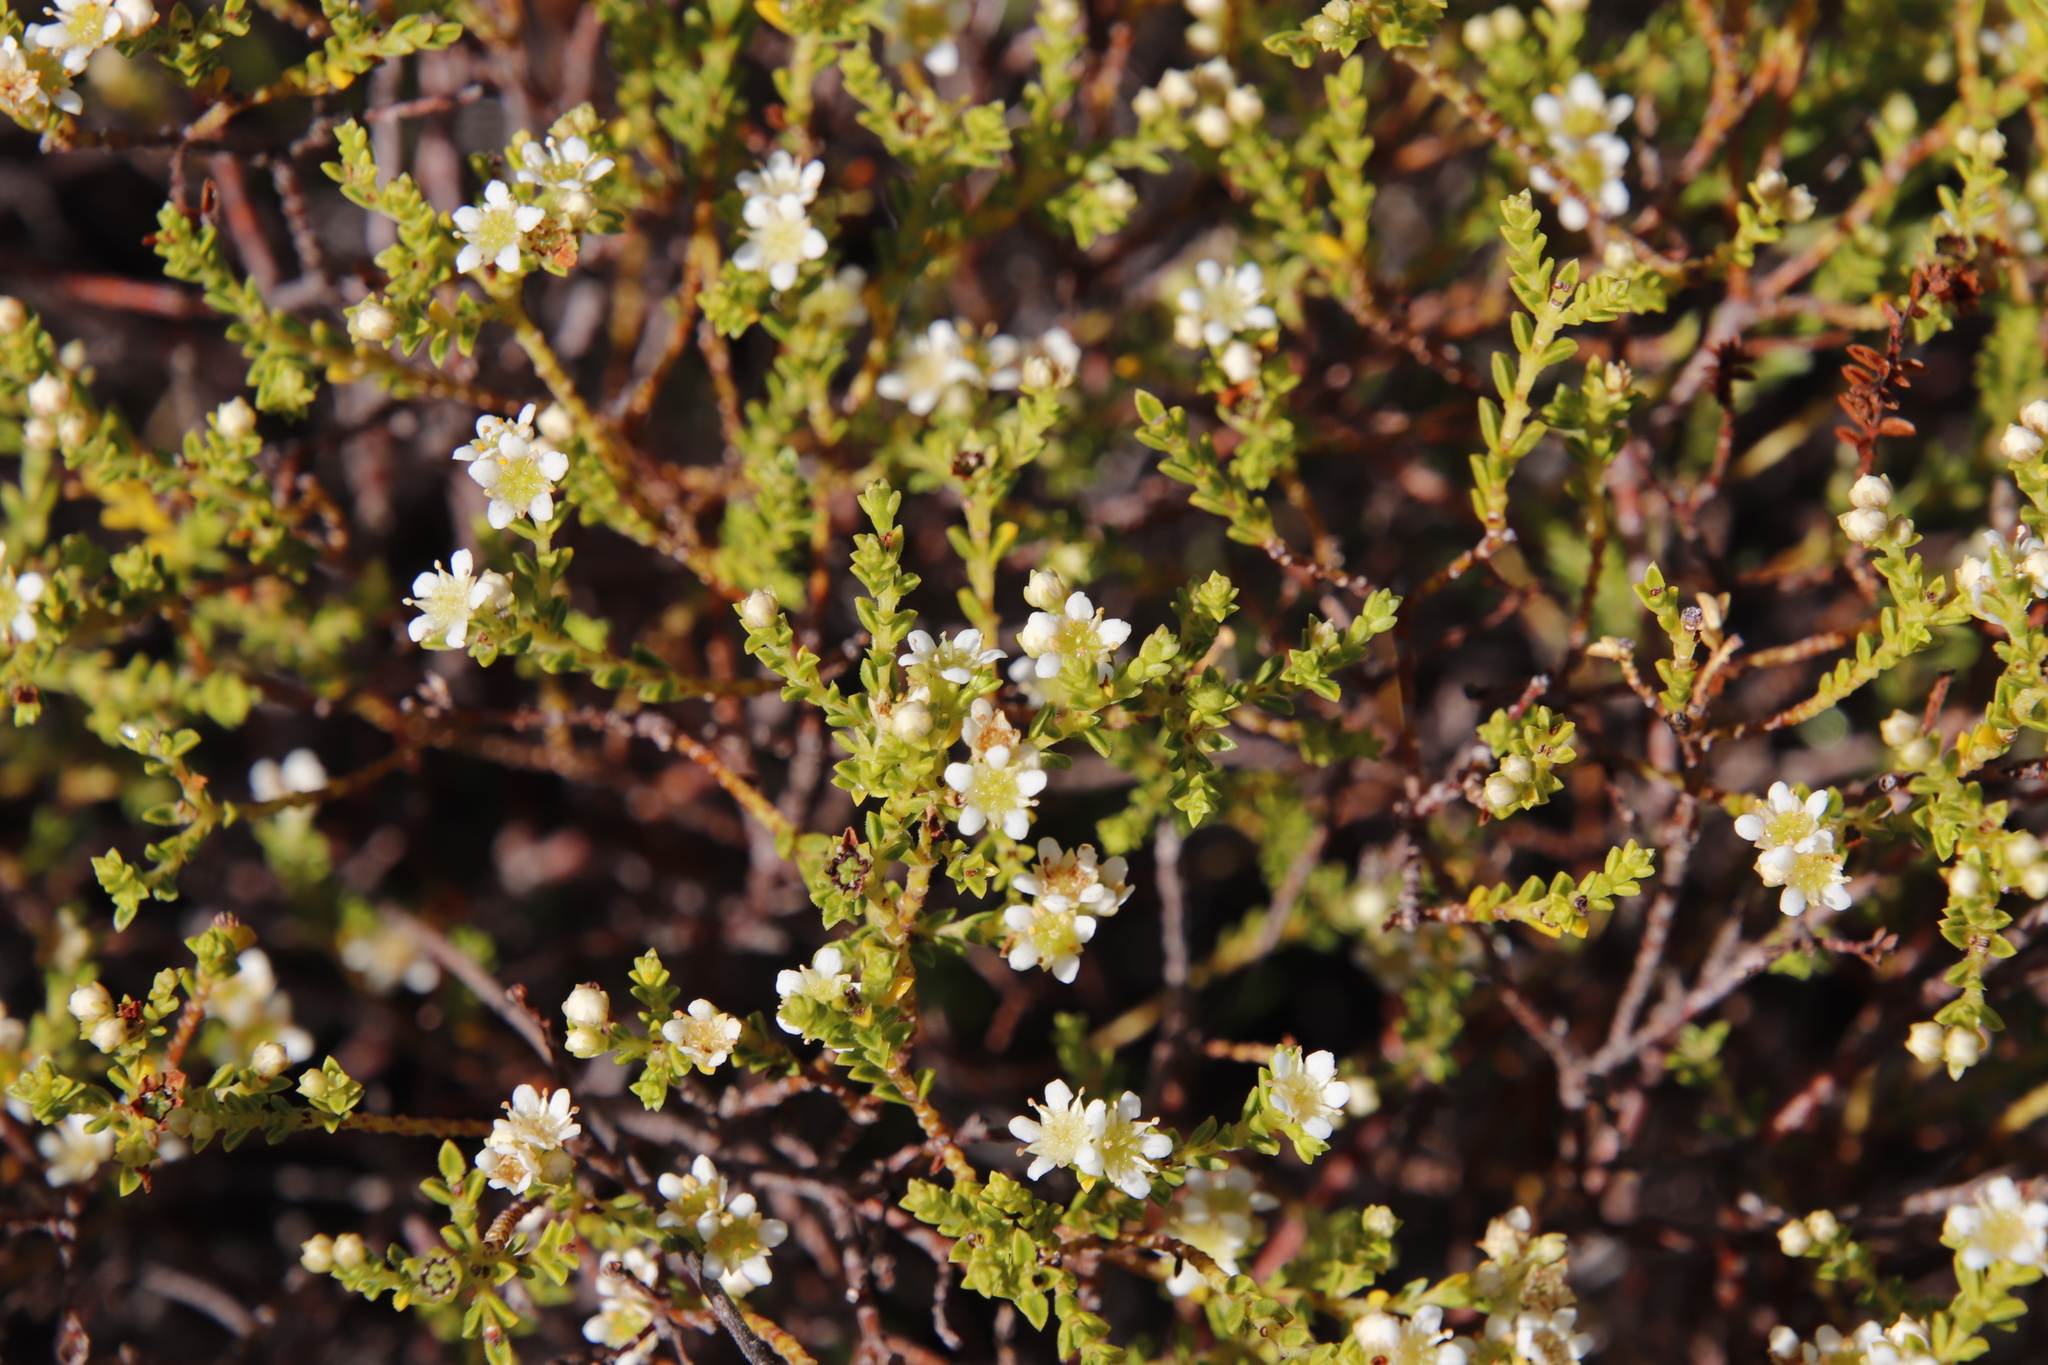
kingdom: Plantae
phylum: Tracheophyta
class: Magnoliopsida
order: Sapindales
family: Rutaceae
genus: Diosma
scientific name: Diosma oppositifolia
